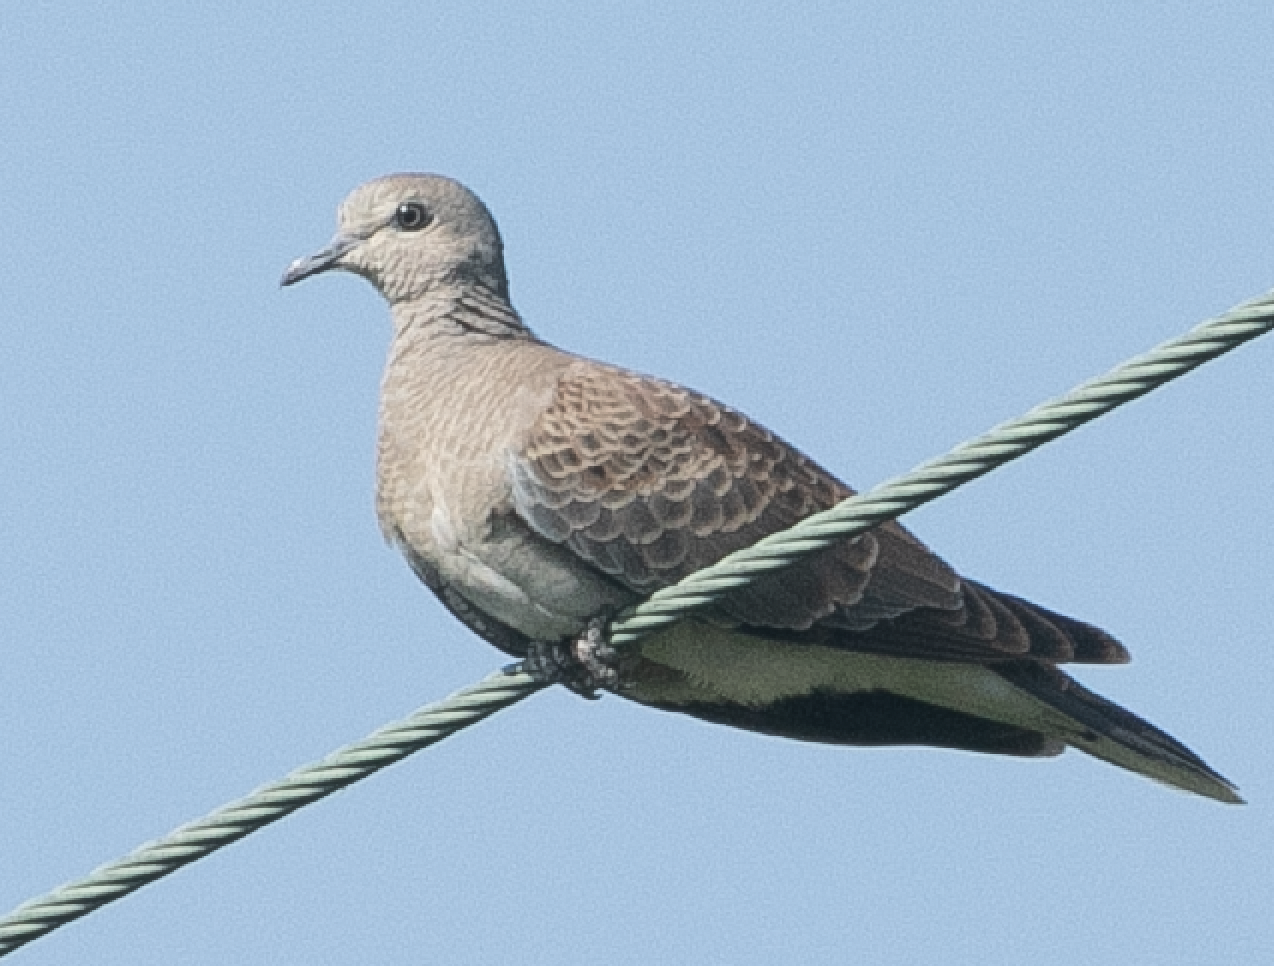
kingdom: Animalia
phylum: Chordata
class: Aves
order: Columbiformes
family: Columbidae
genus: Streptopelia
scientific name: Streptopelia turtur
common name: European turtle dove
